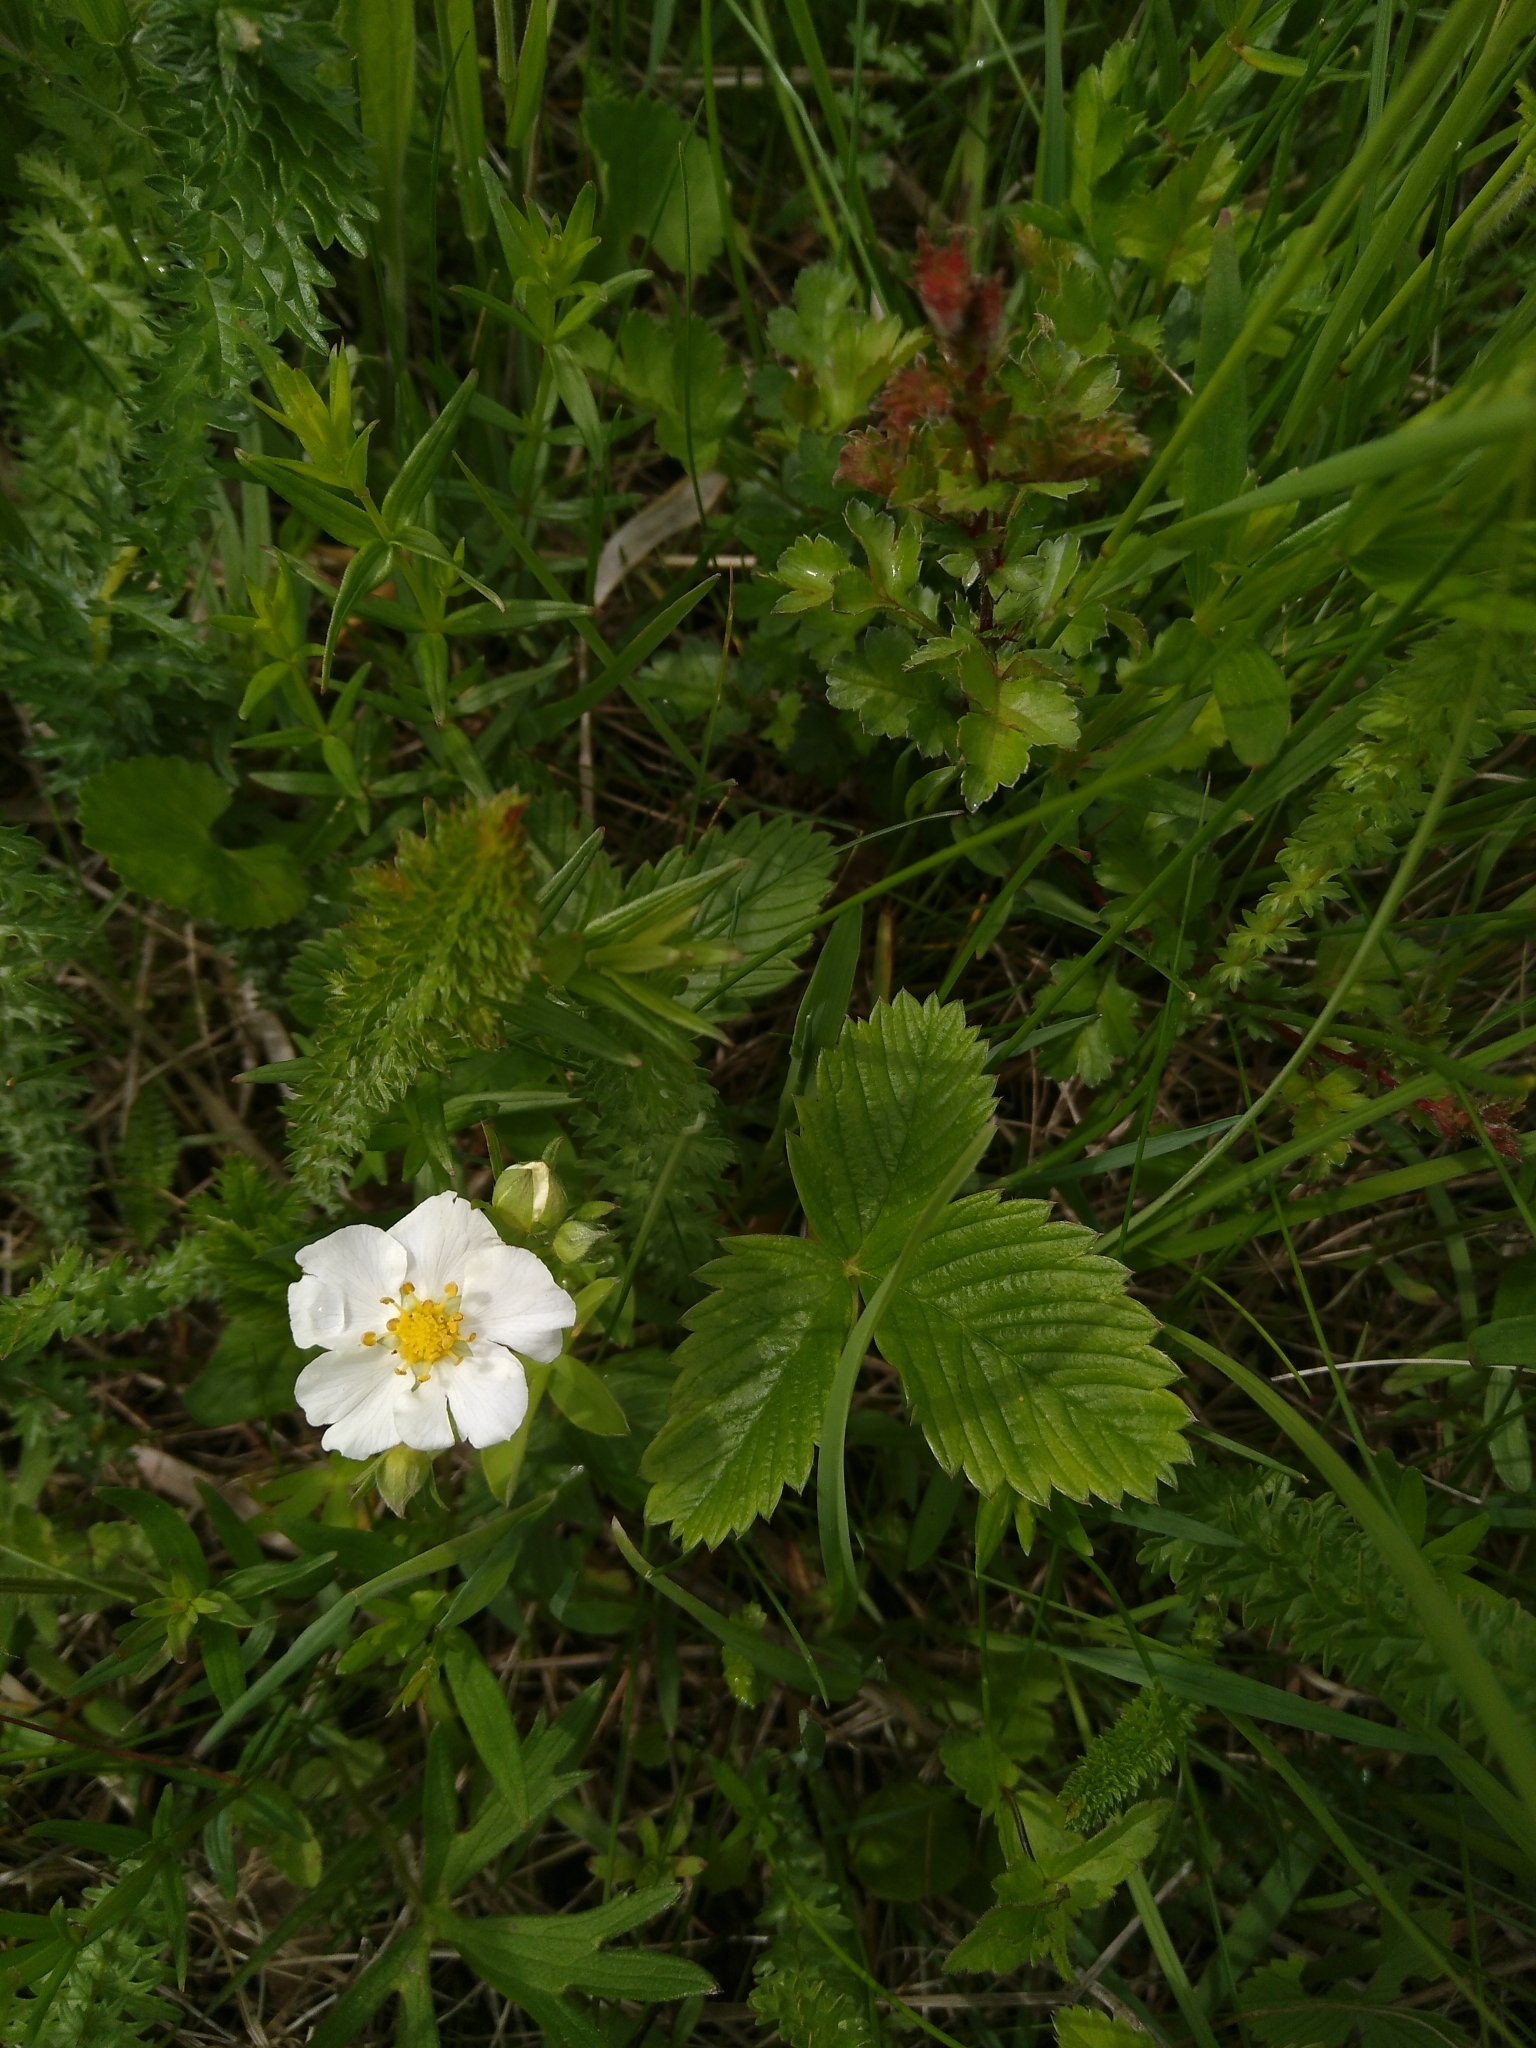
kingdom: Plantae
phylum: Tracheophyta
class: Magnoliopsida
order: Rosales
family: Rosaceae
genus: Fragaria
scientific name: Fragaria viridis
